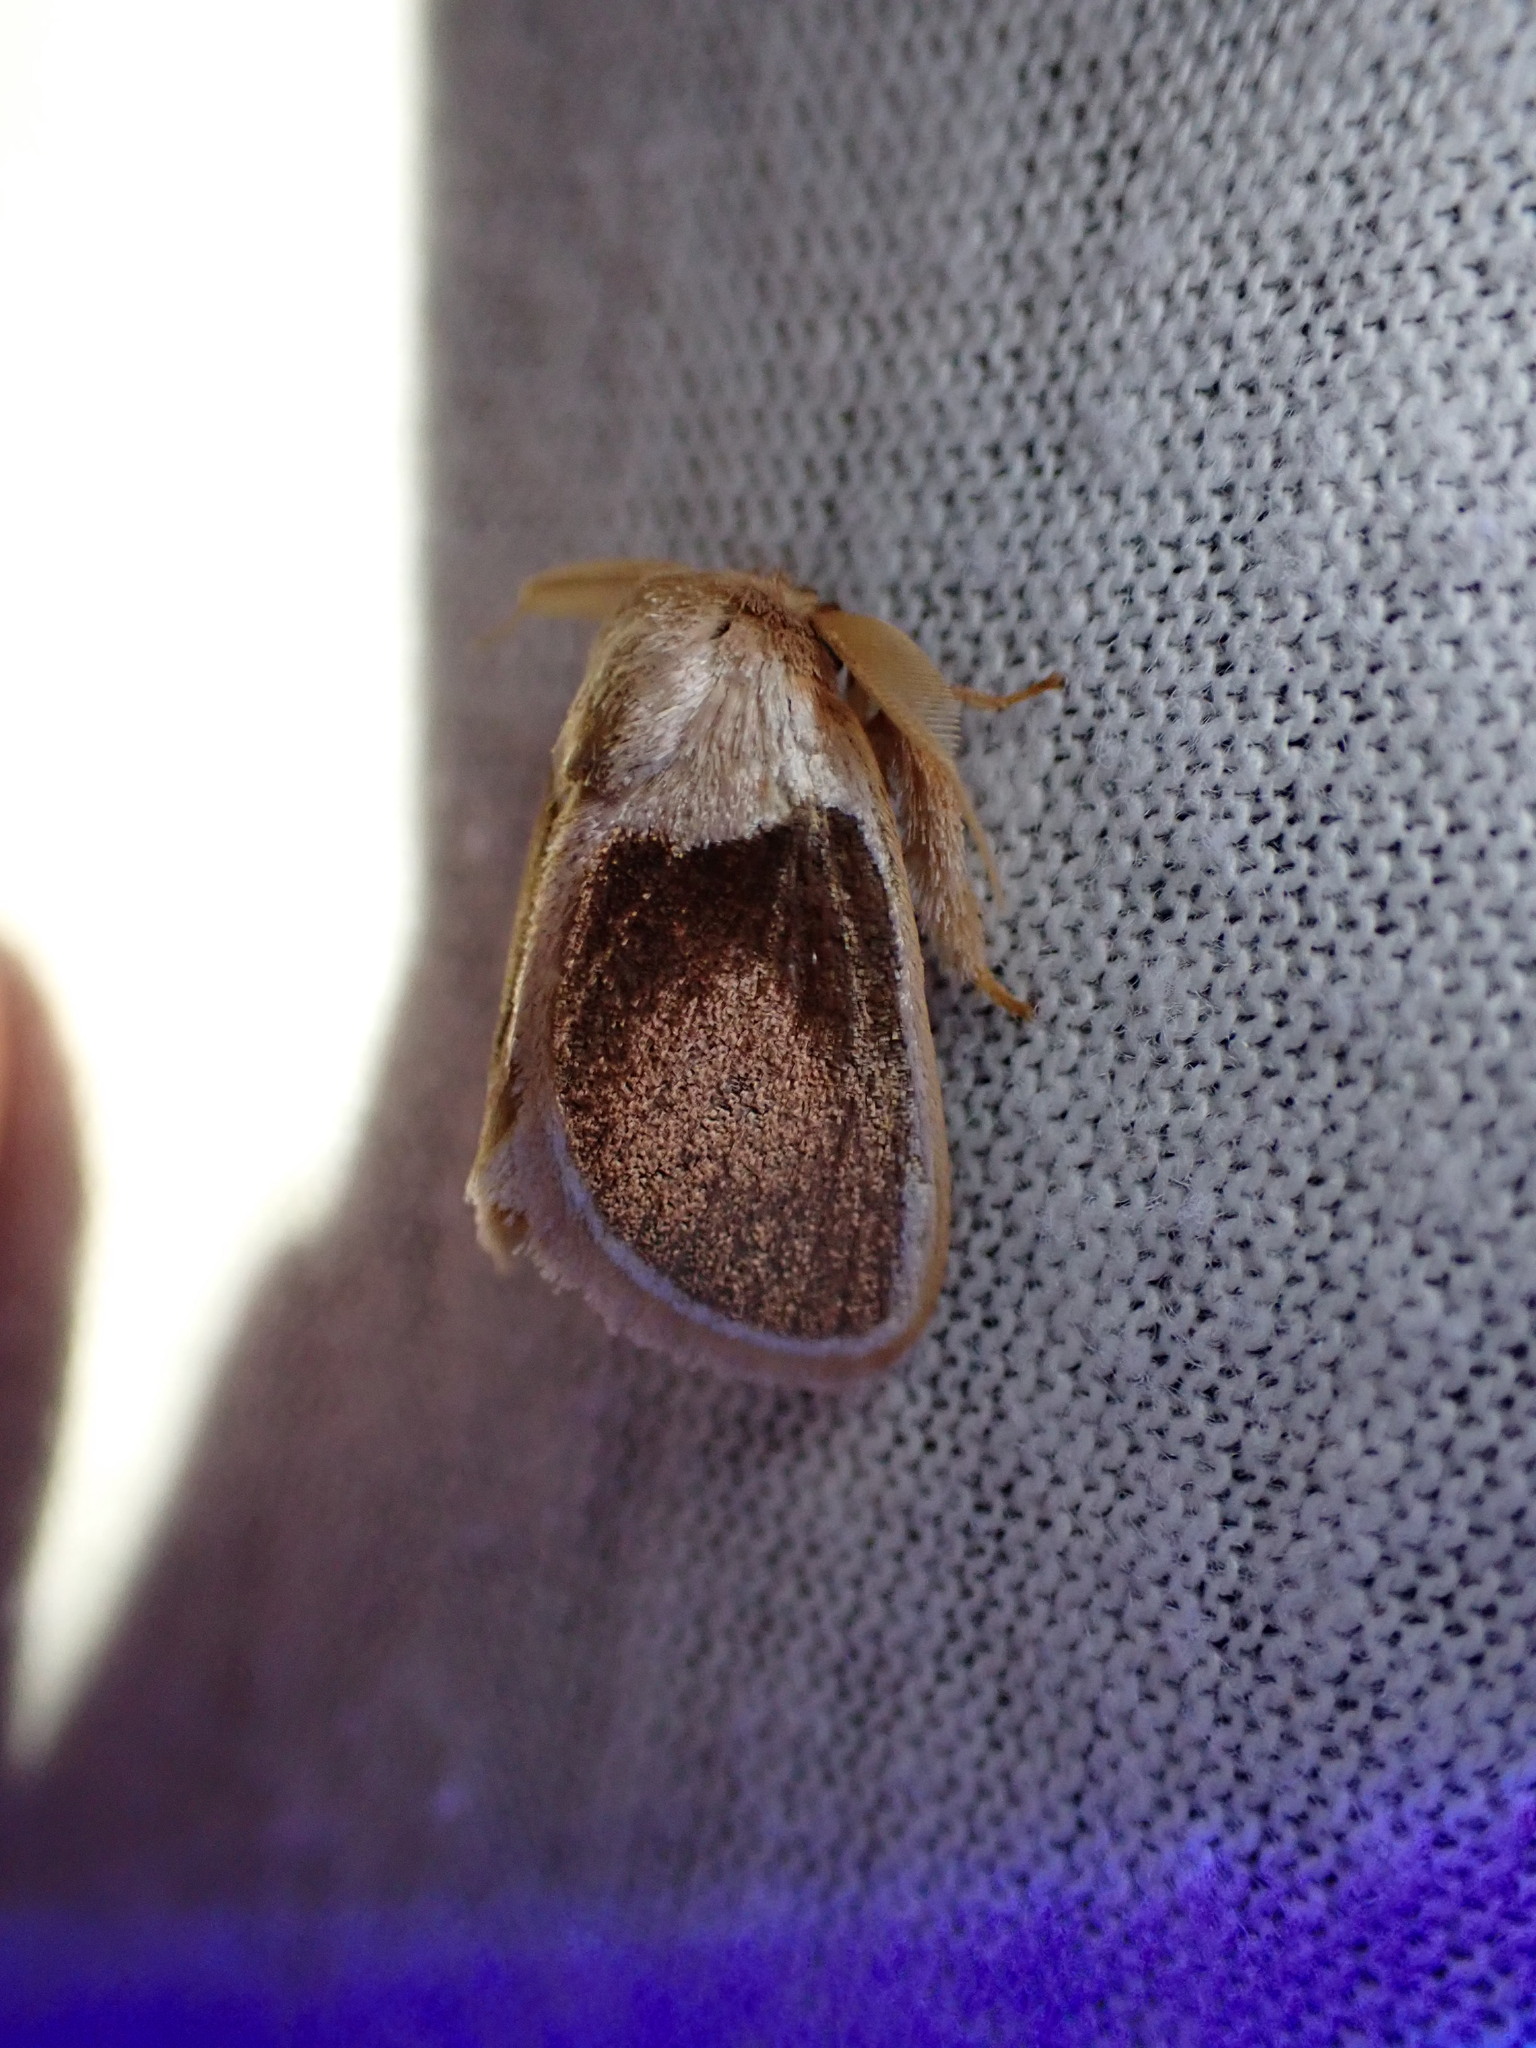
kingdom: Animalia
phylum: Arthropoda
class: Insecta
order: Lepidoptera
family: Limacodidae
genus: Cania
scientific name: Cania bandura
